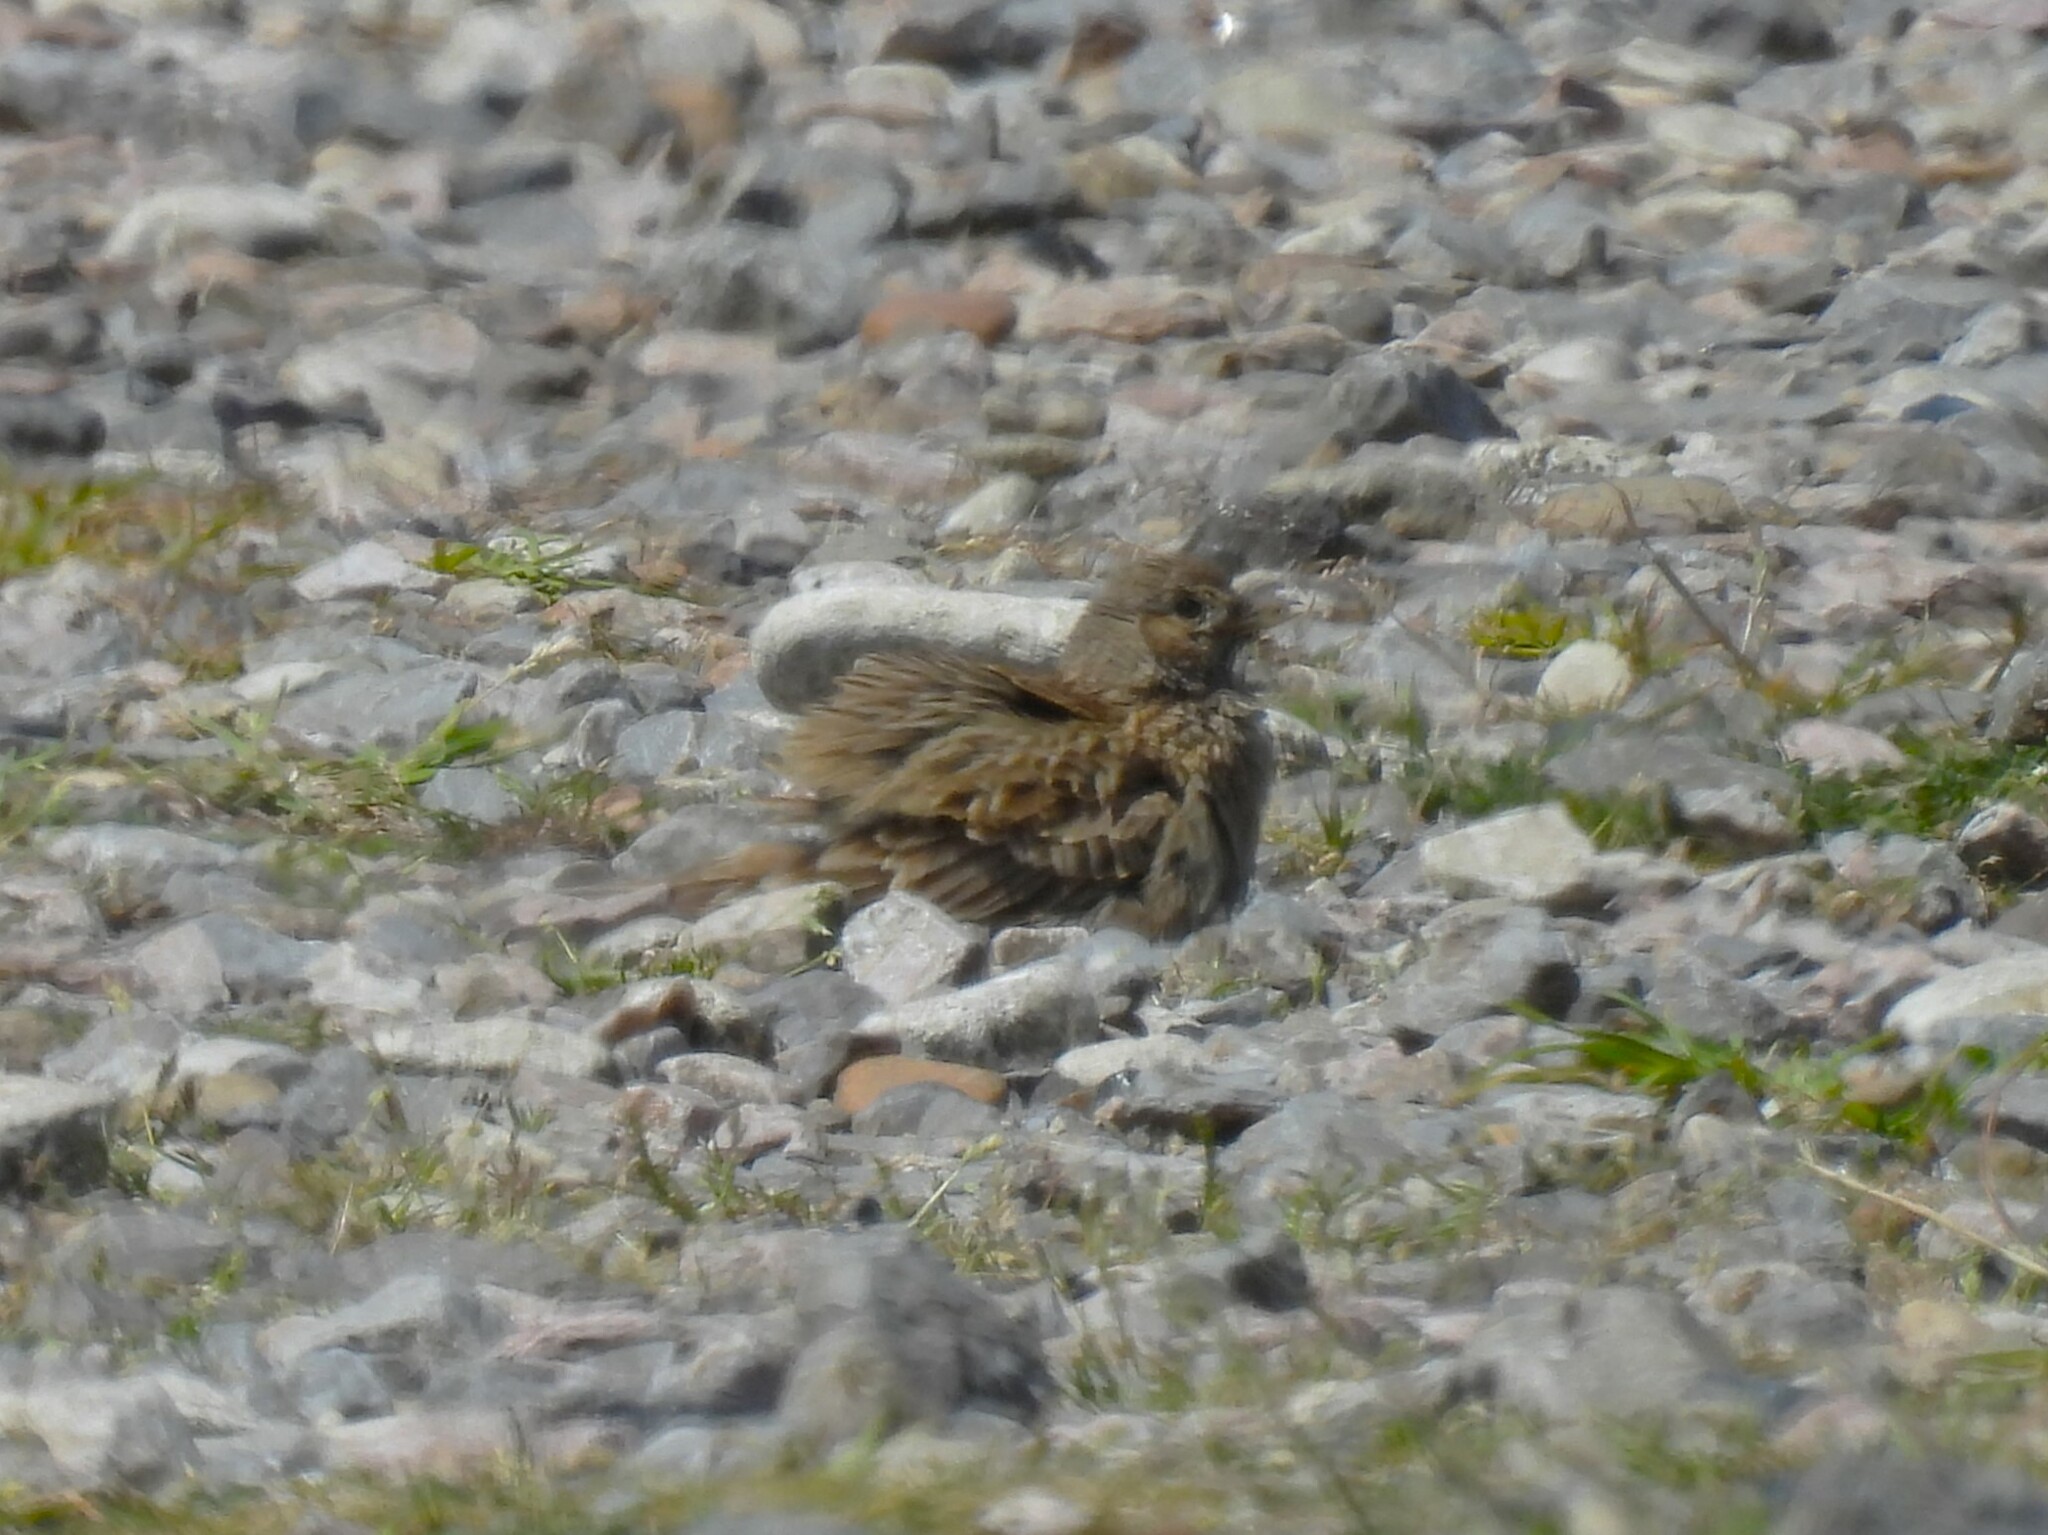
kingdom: Animalia
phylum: Chordata
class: Aves
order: Passeriformes
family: Alaudidae
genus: Alauda
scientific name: Alauda arvensis
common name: Eurasian skylark
